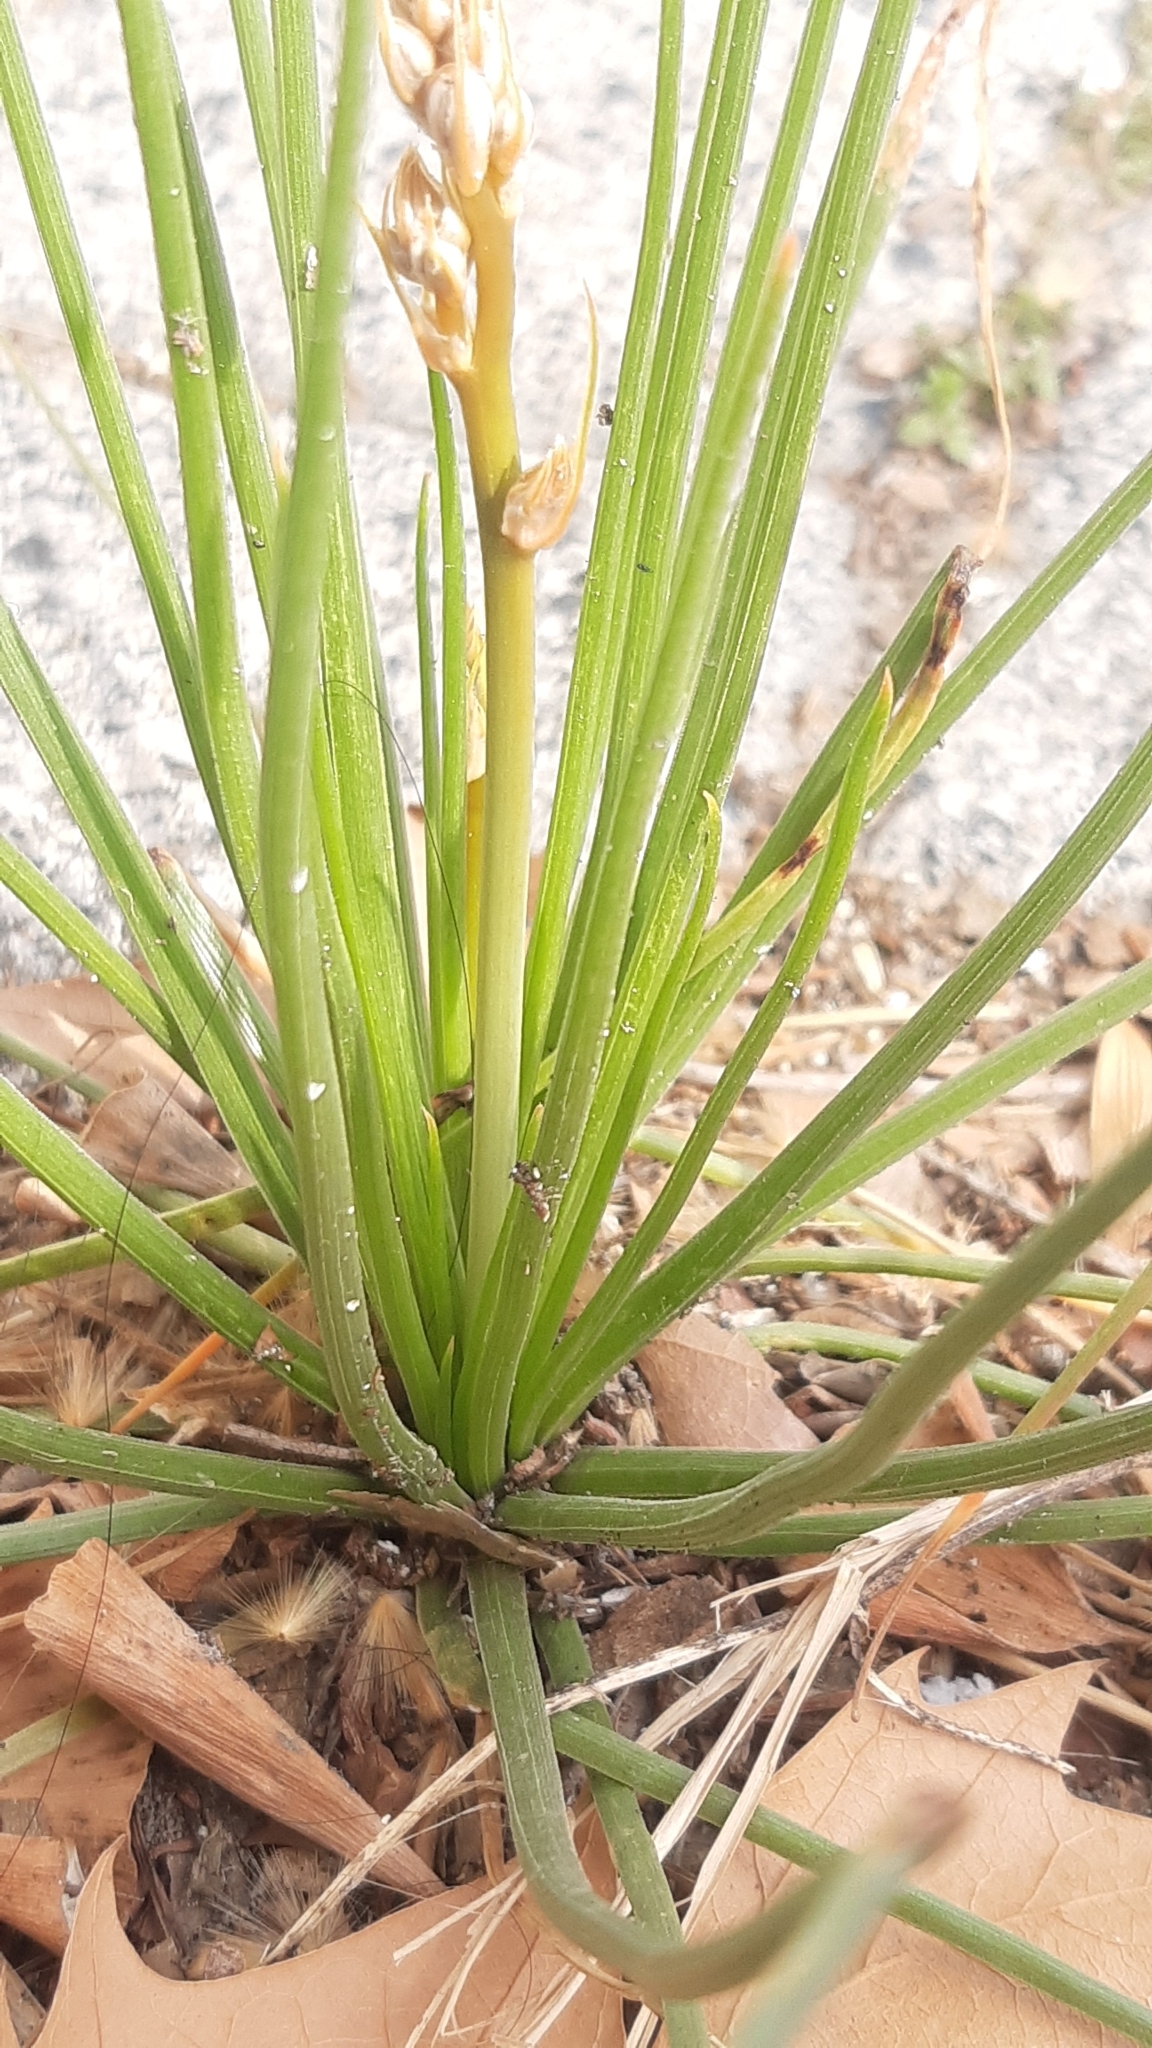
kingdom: Plantae
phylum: Tracheophyta
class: Liliopsida
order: Asparagales
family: Asphodelaceae
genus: Asphodelus
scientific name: Asphodelus fistulosus
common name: Onionweed
